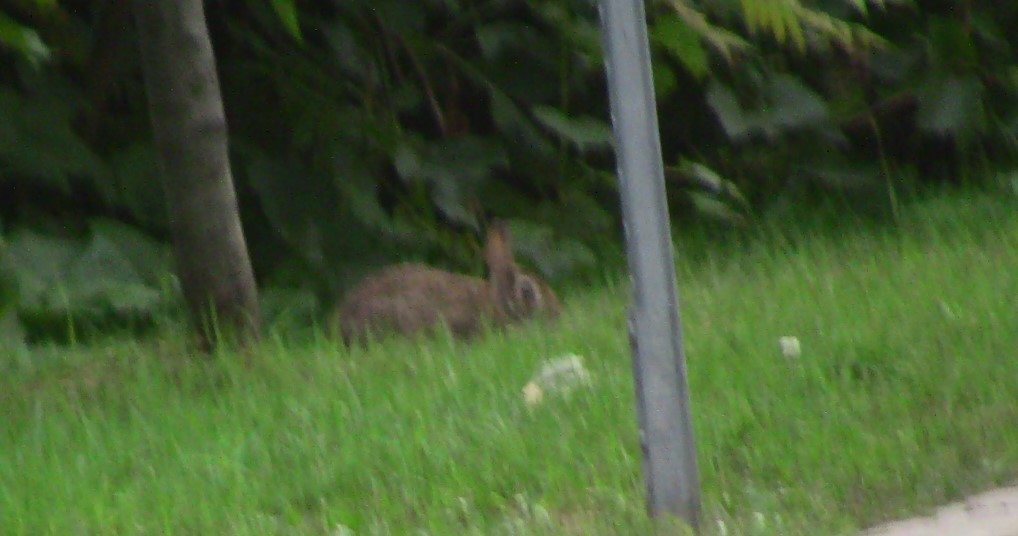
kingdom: Animalia
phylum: Chordata
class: Mammalia
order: Lagomorpha
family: Leporidae
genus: Sylvilagus
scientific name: Sylvilagus floridanus
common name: Eastern cottontail
